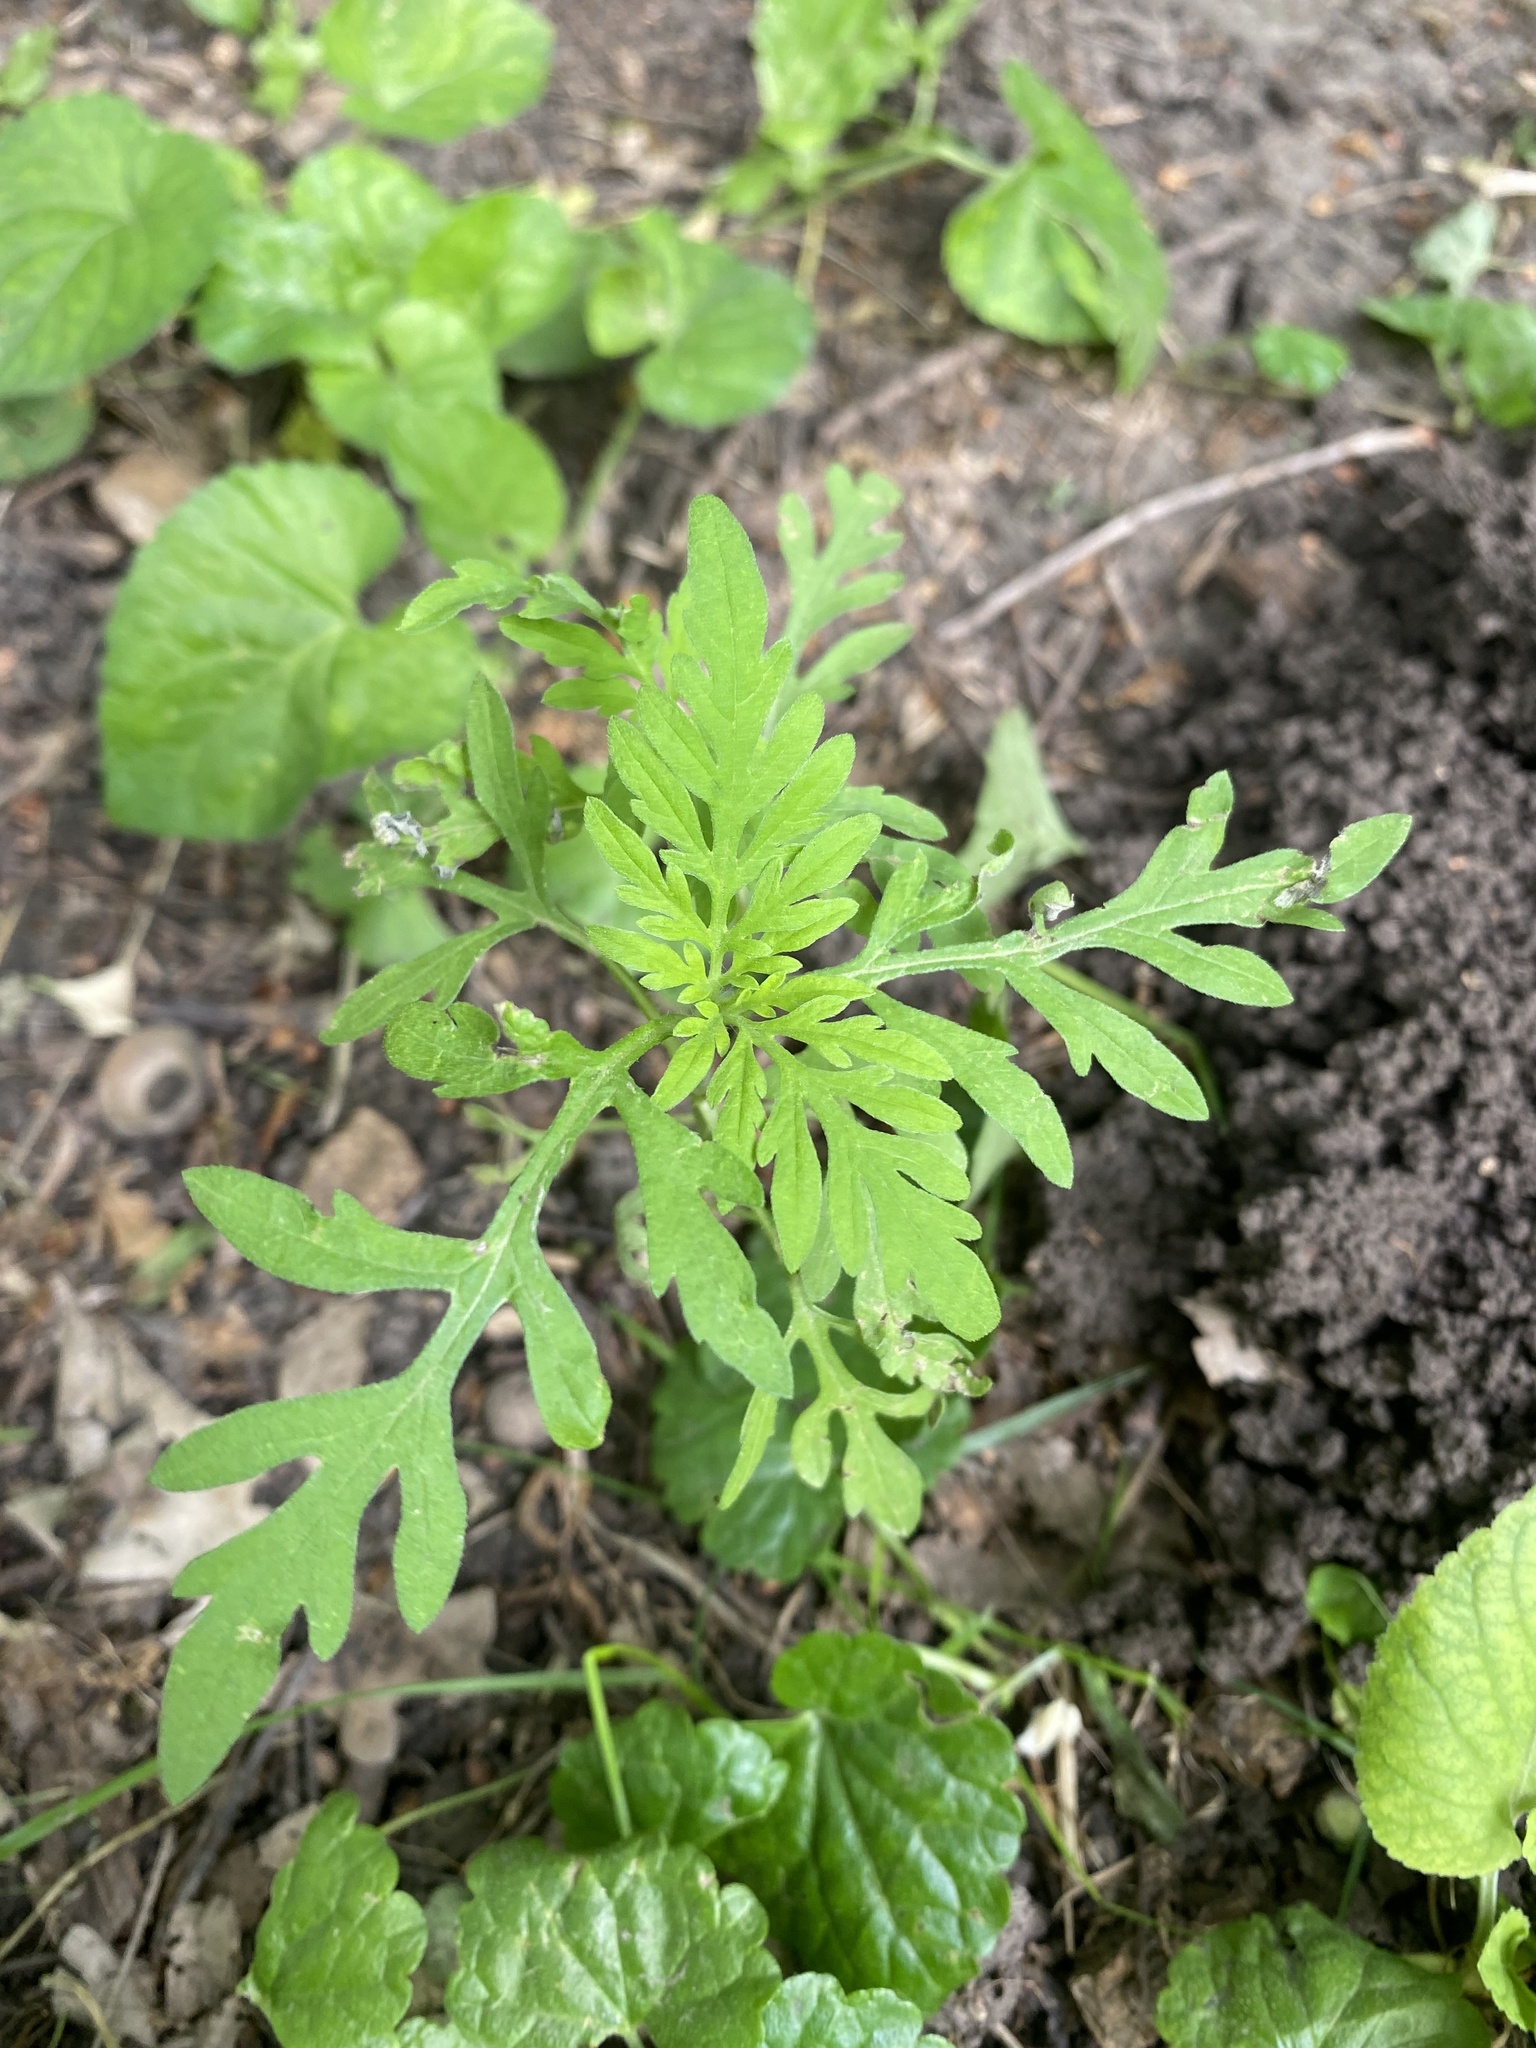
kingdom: Plantae
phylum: Tracheophyta
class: Magnoliopsida
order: Asterales
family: Asteraceae
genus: Ambrosia
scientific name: Ambrosia artemisiifolia
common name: Annual ragweed
